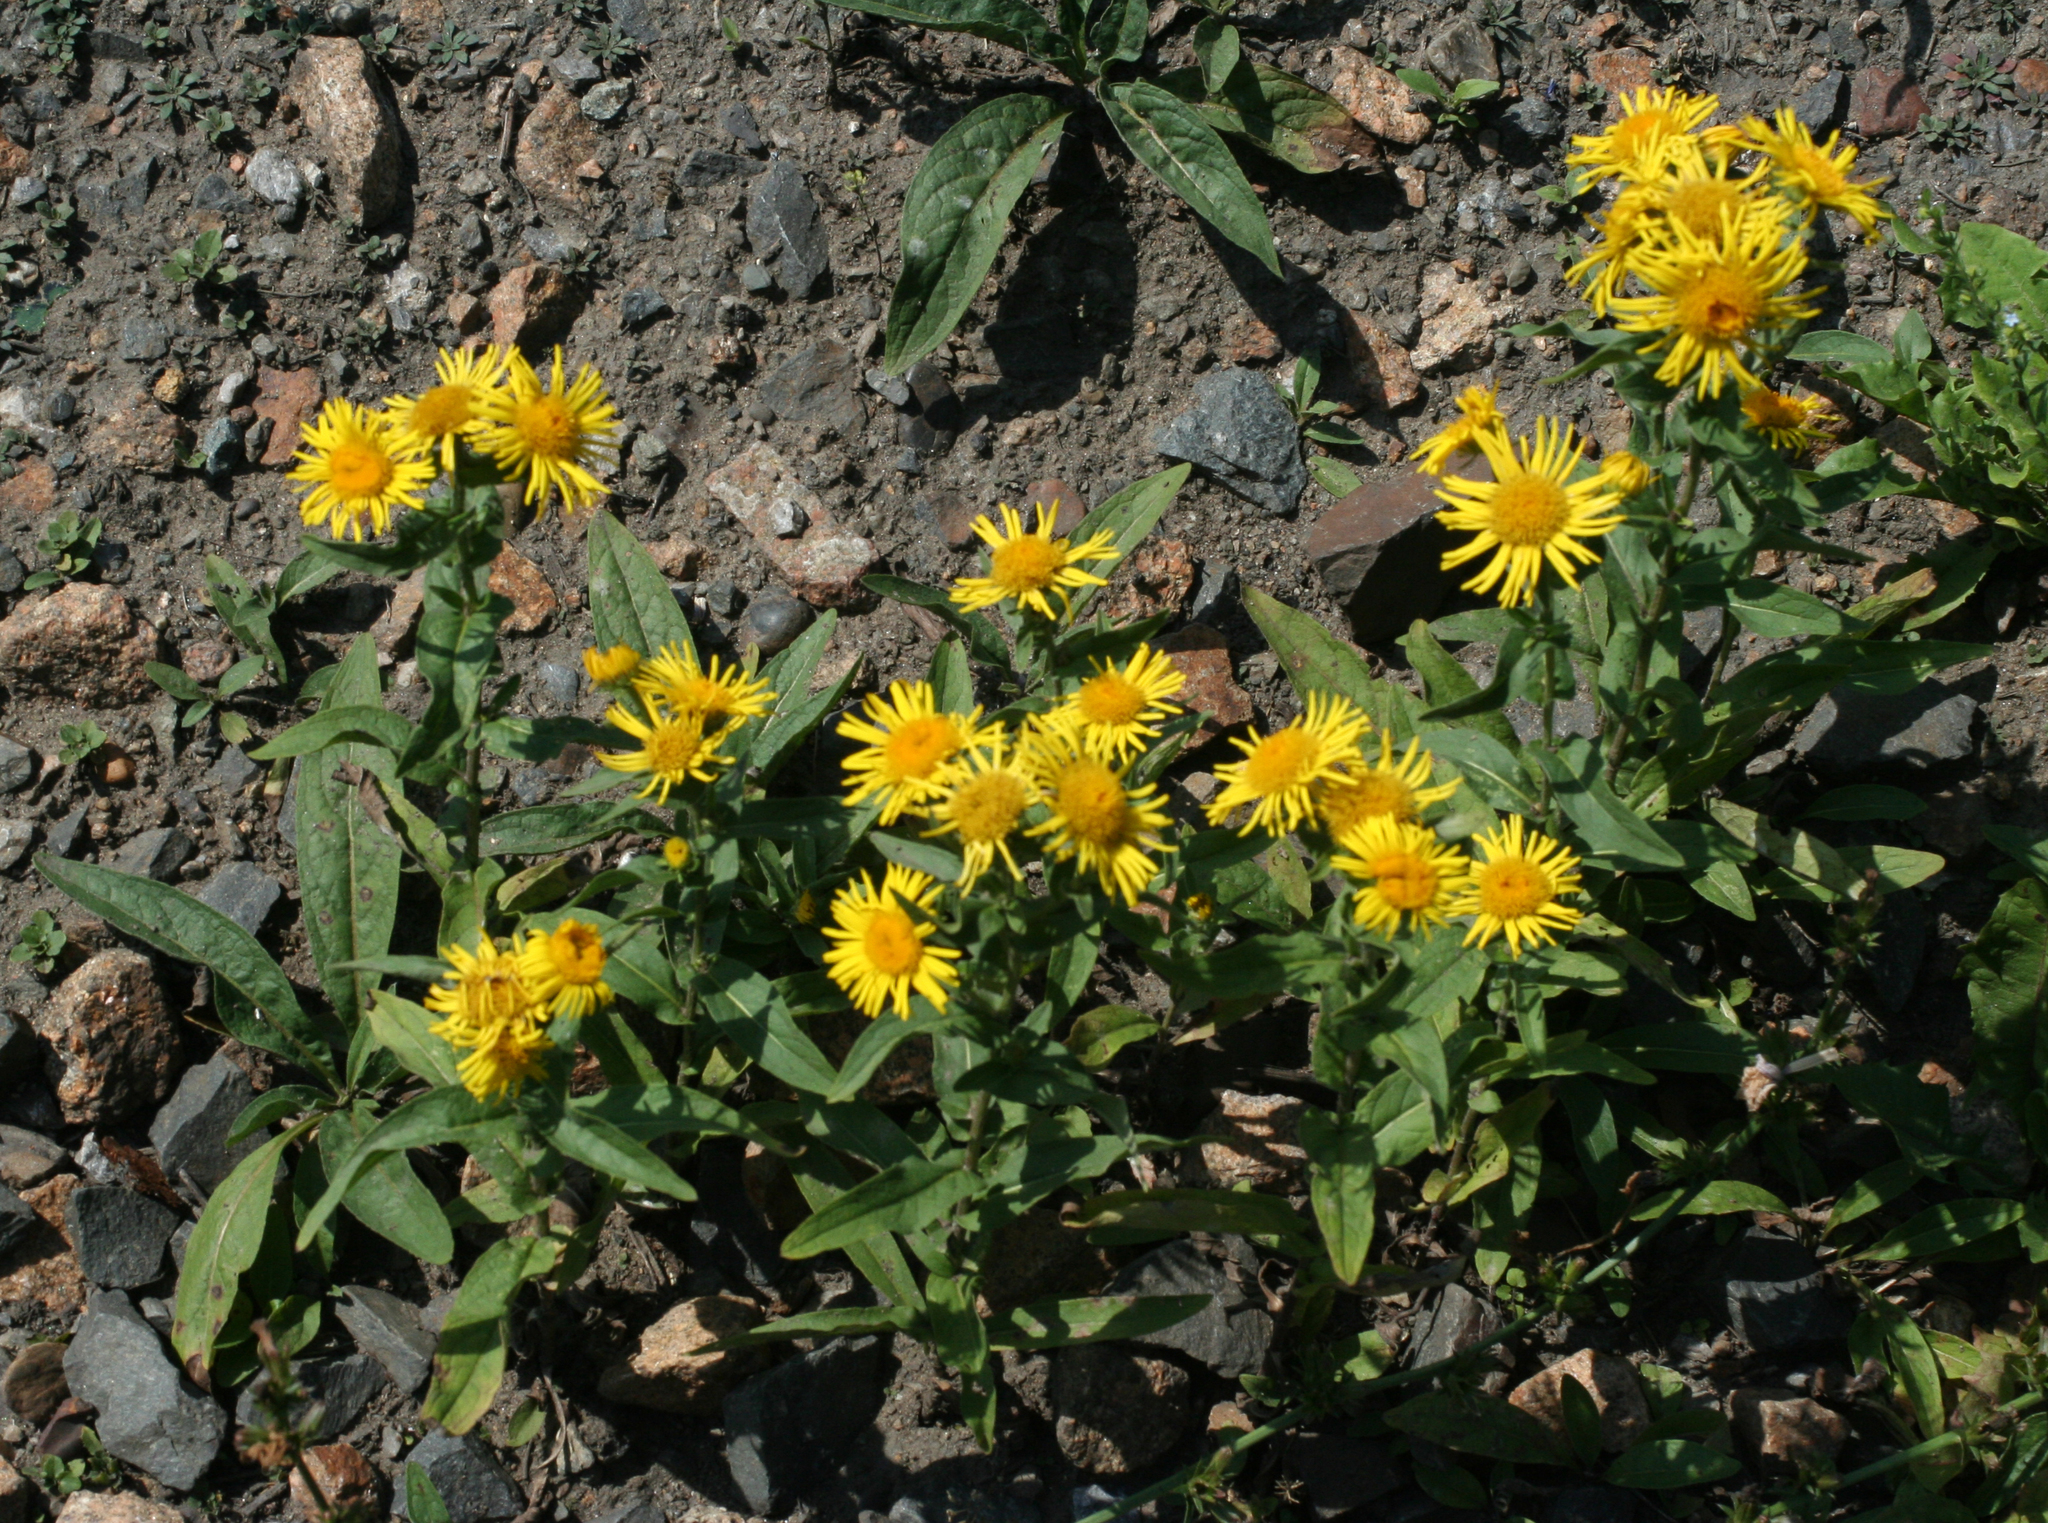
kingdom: Plantae
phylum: Tracheophyta
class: Magnoliopsida
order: Asterales
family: Asteraceae
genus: Pentanema
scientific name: Pentanema britannicum
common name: British elecampane
